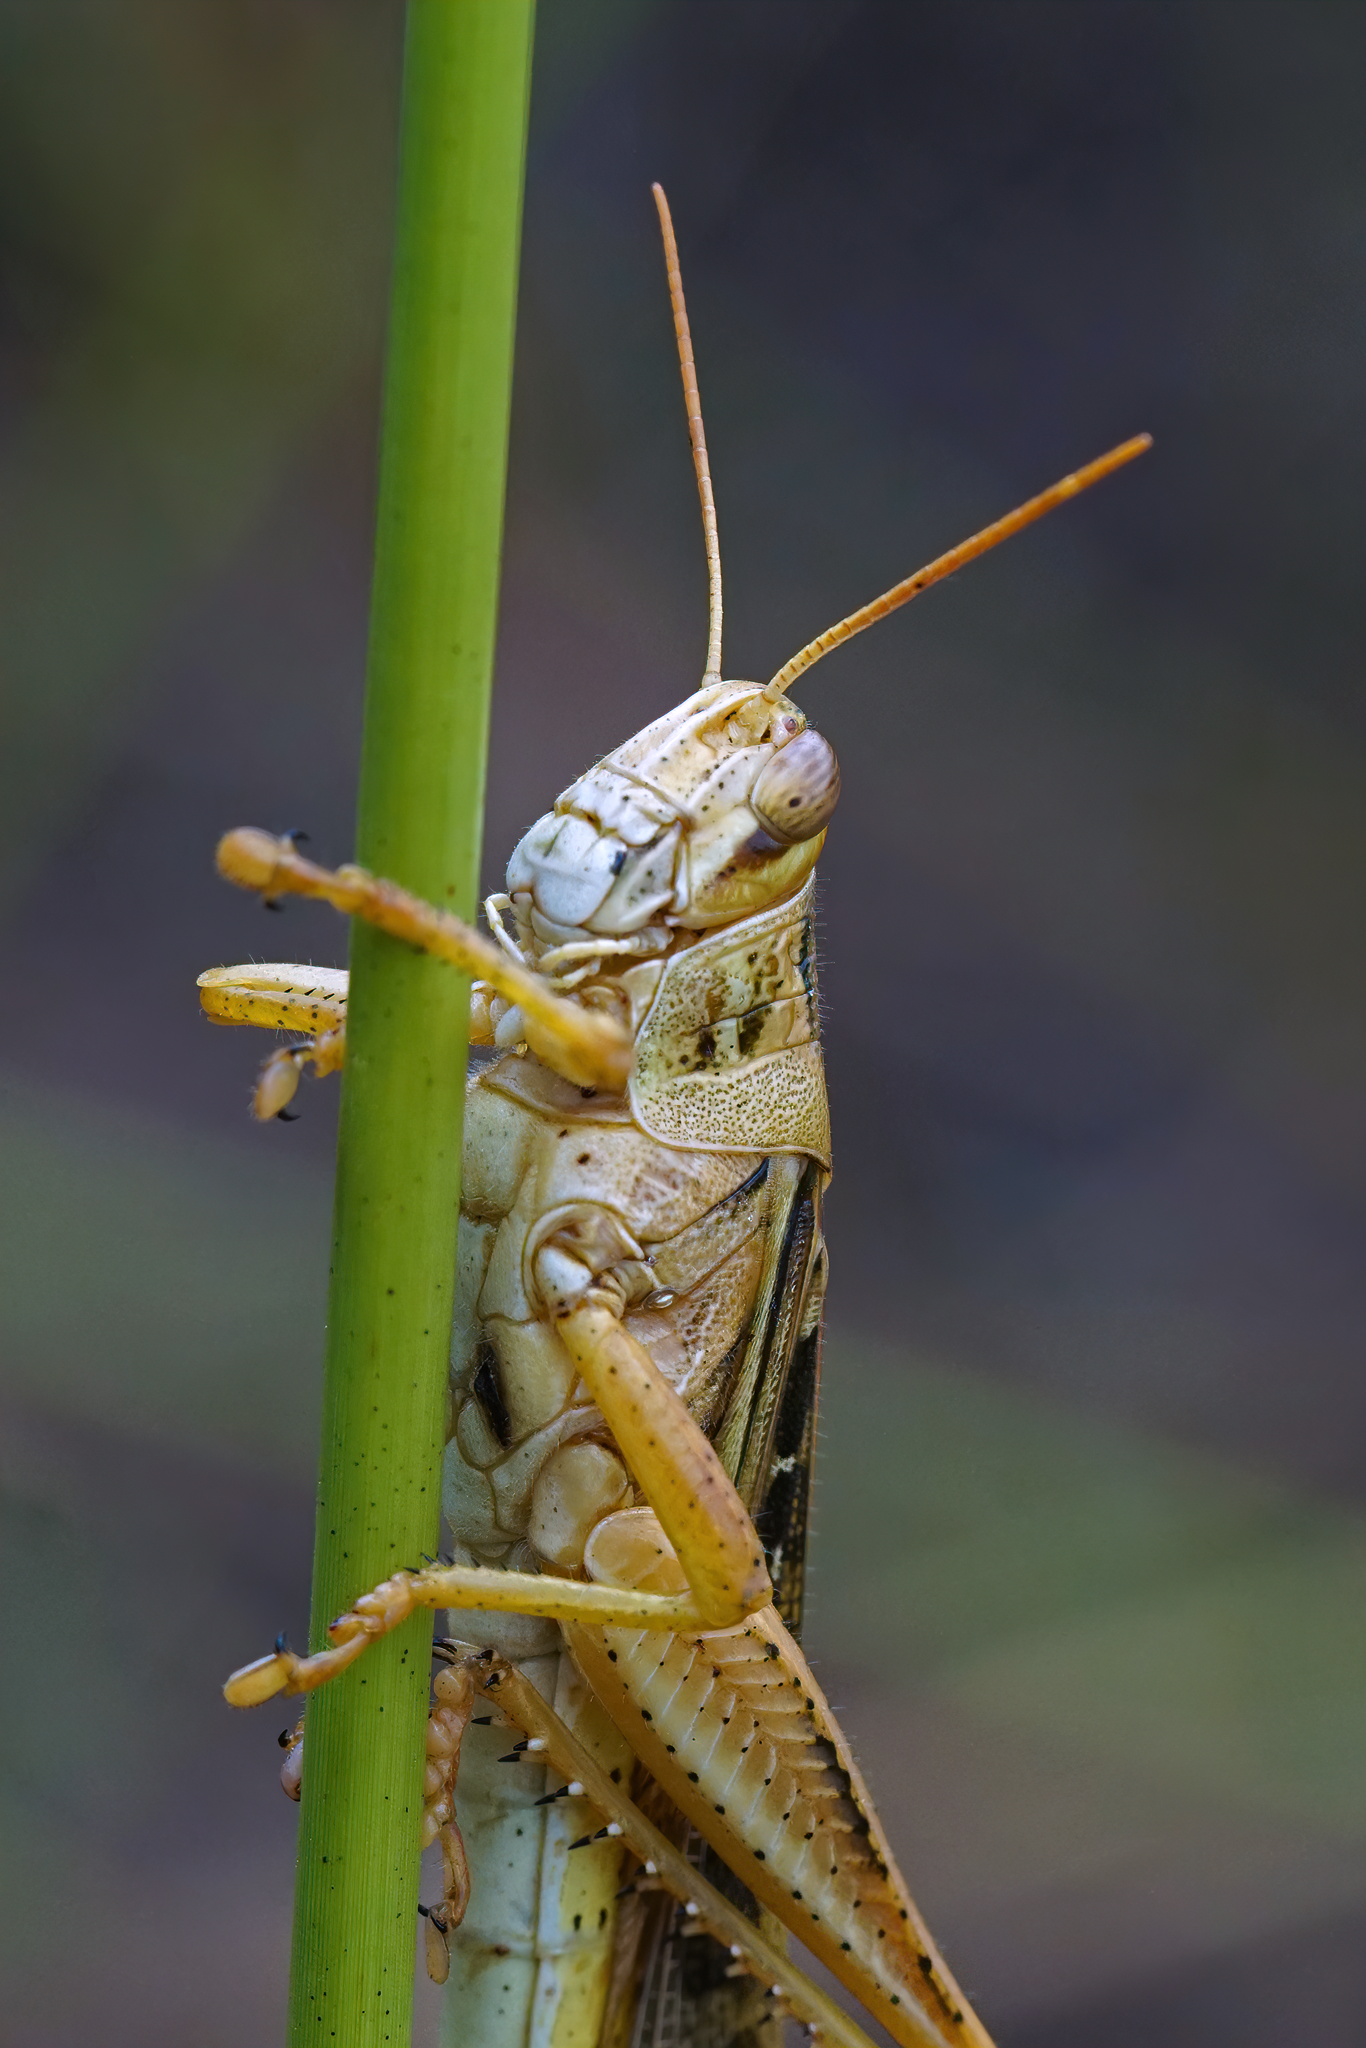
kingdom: Animalia
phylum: Arthropoda
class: Insecta
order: Orthoptera
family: Acrididae
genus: Schistocerca
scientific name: Schistocerca americana
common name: American bird locust
